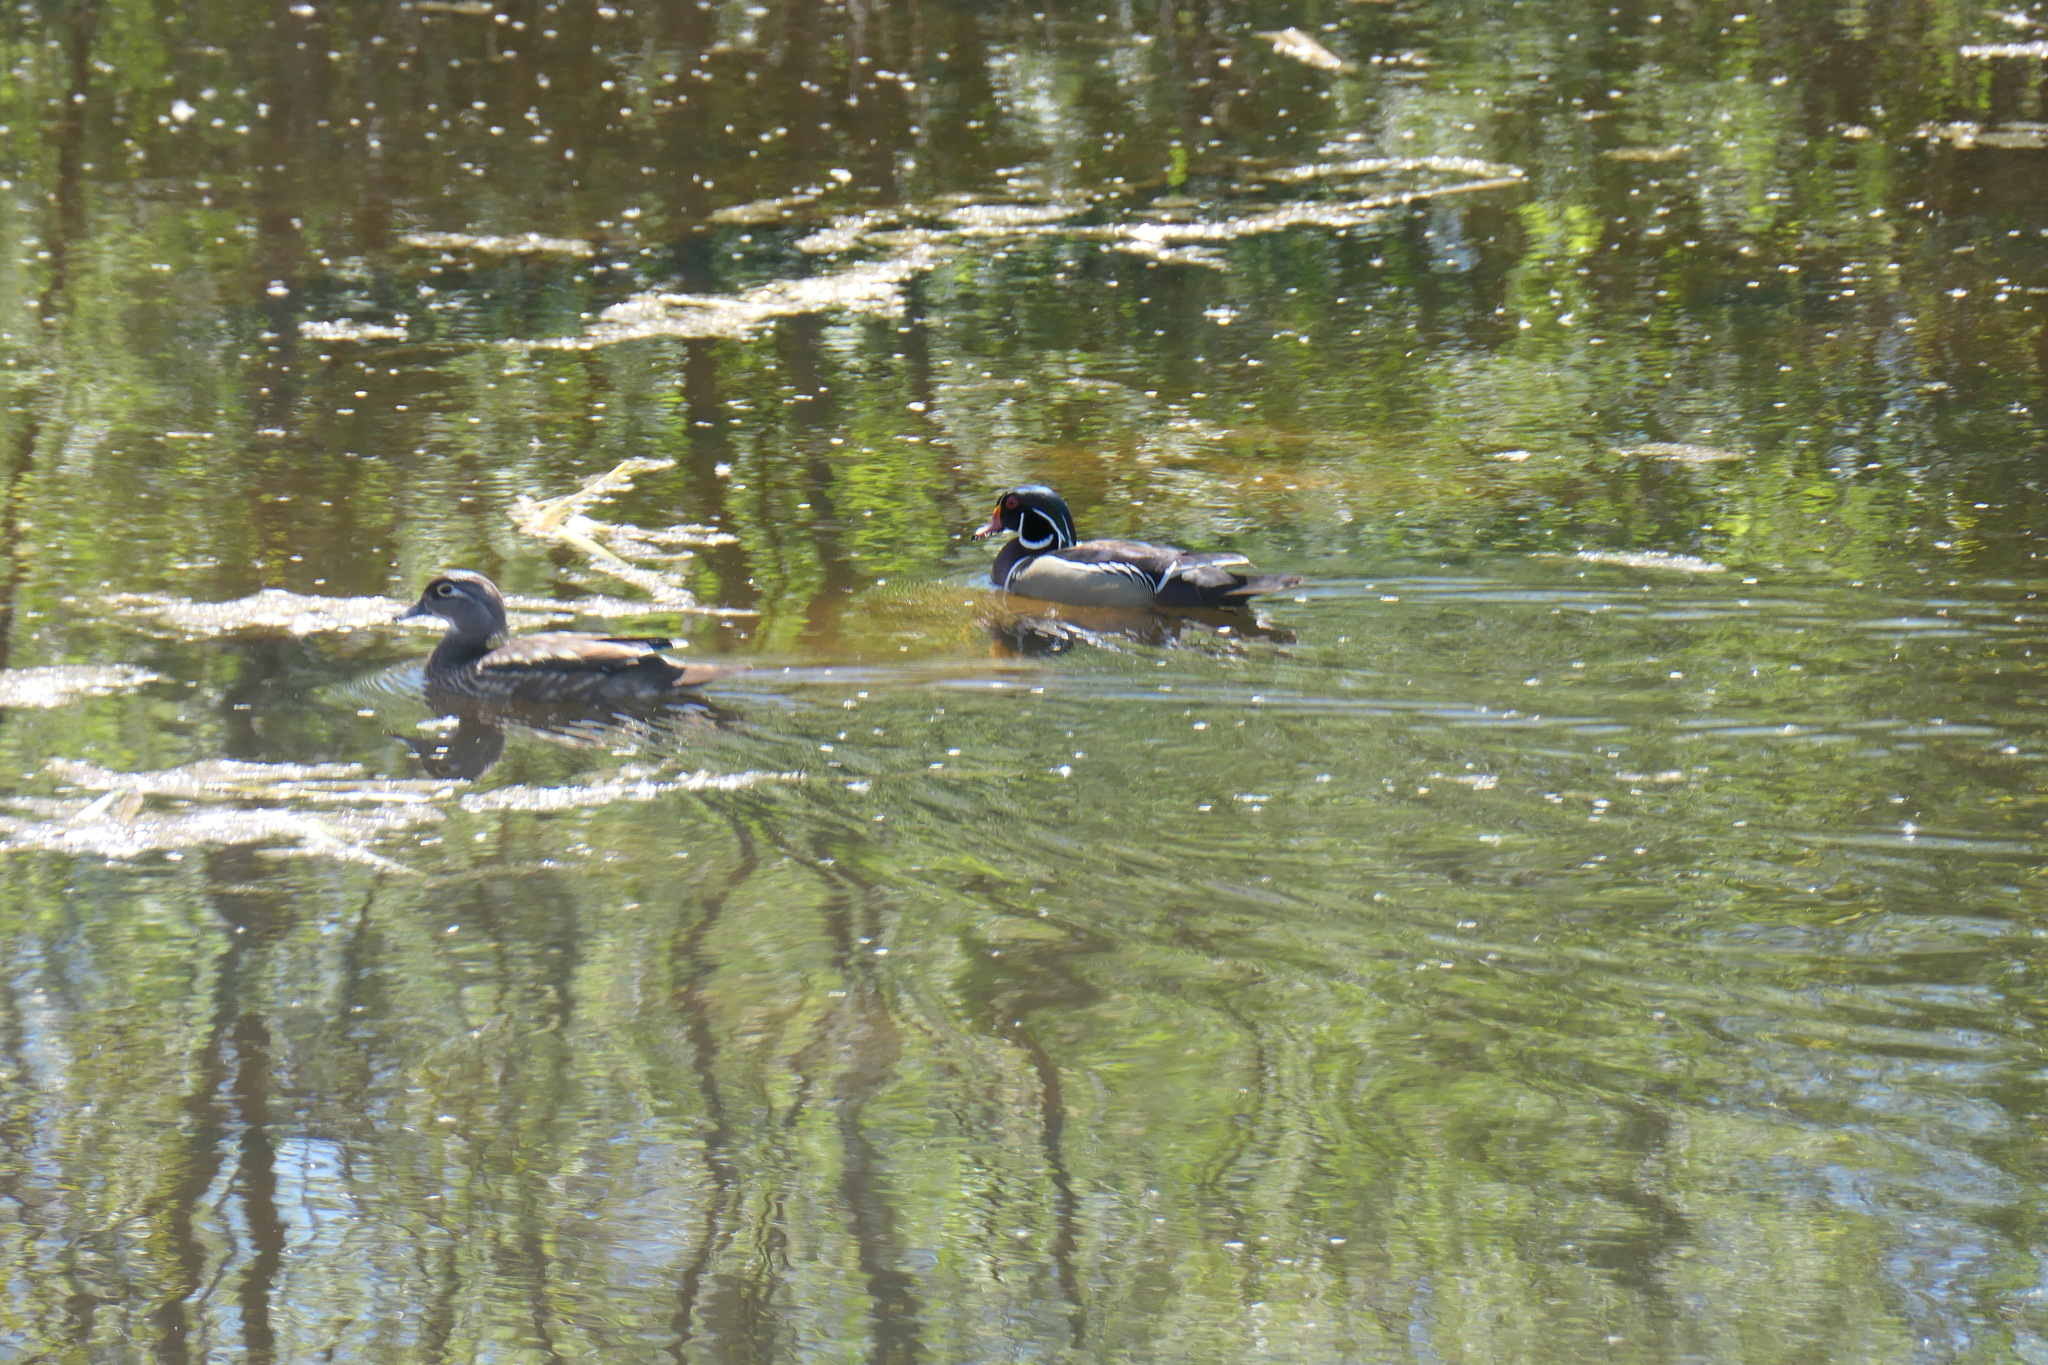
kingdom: Animalia
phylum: Chordata
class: Aves
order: Anseriformes
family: Anatidae
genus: Aix
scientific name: Aix sponsa
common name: Wood duck
